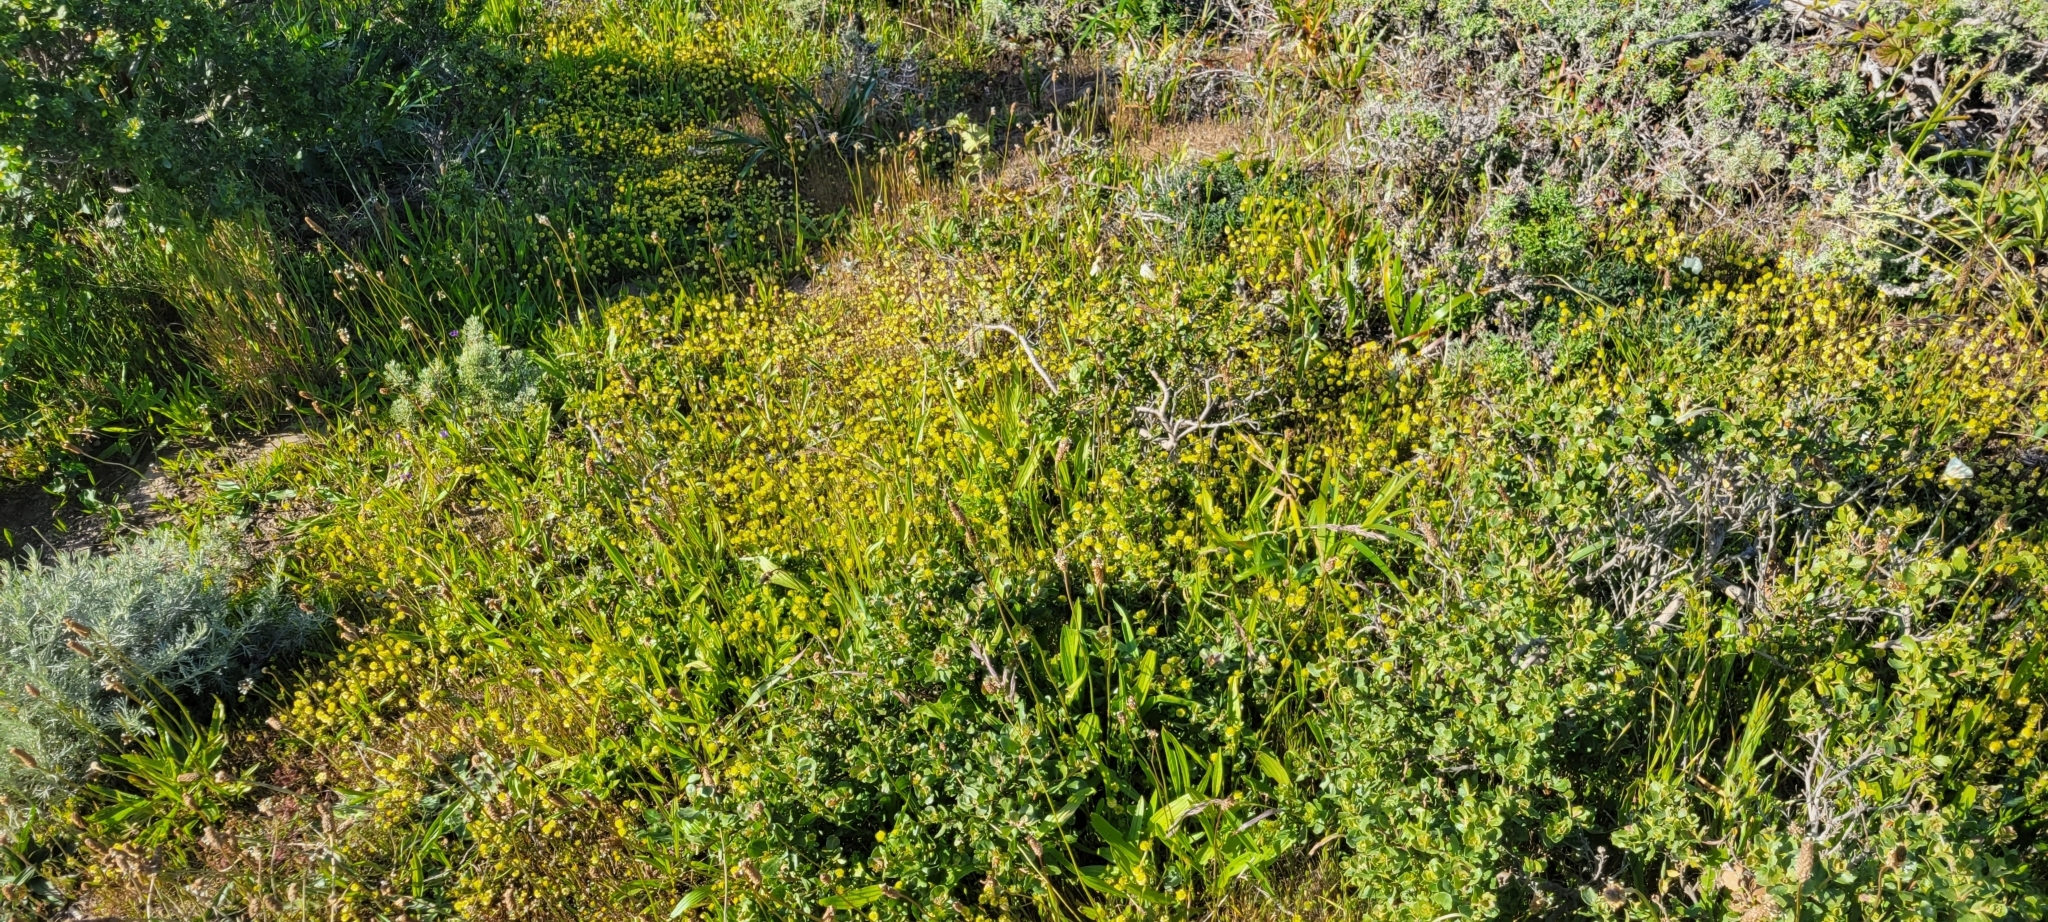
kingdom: Plantae
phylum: Tracheophyta
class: Magnoliopsida
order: Fabales
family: Fabaceae
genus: Trifolium
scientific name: Trifolium campestre
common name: Field clover
